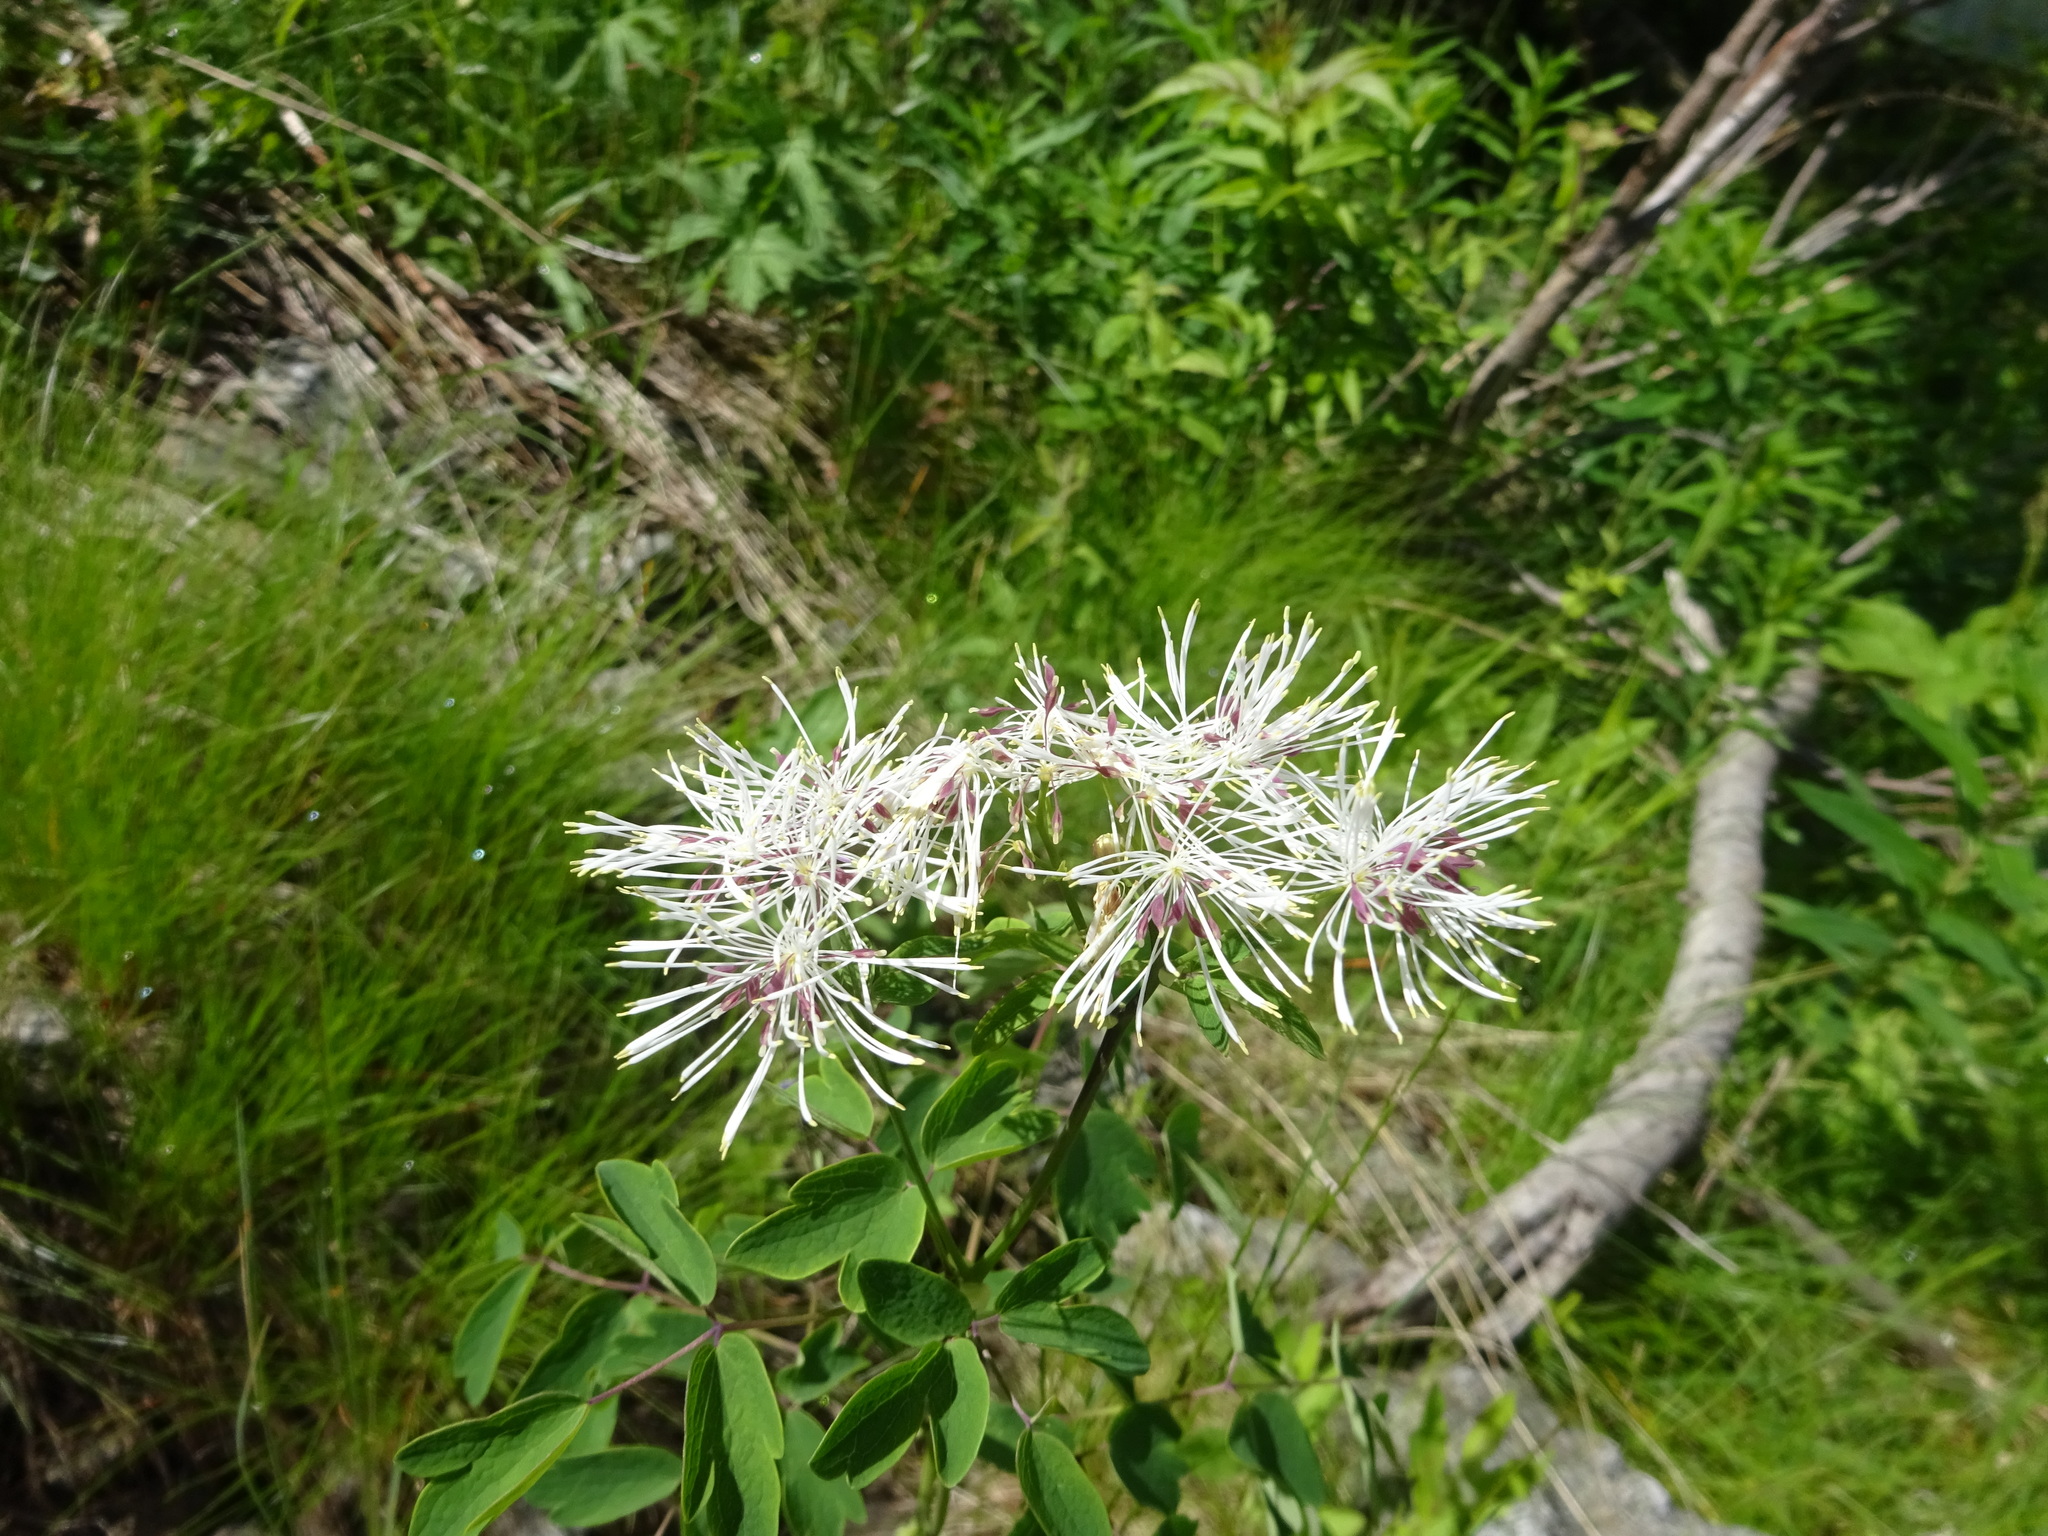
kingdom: Plantae
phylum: Tracheophyta
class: Magnoliopsida
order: Ranunculales
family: Ranunculaceae
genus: Thalictrum
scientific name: Thalictrum aquilegiifolium
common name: French meadow-rue
